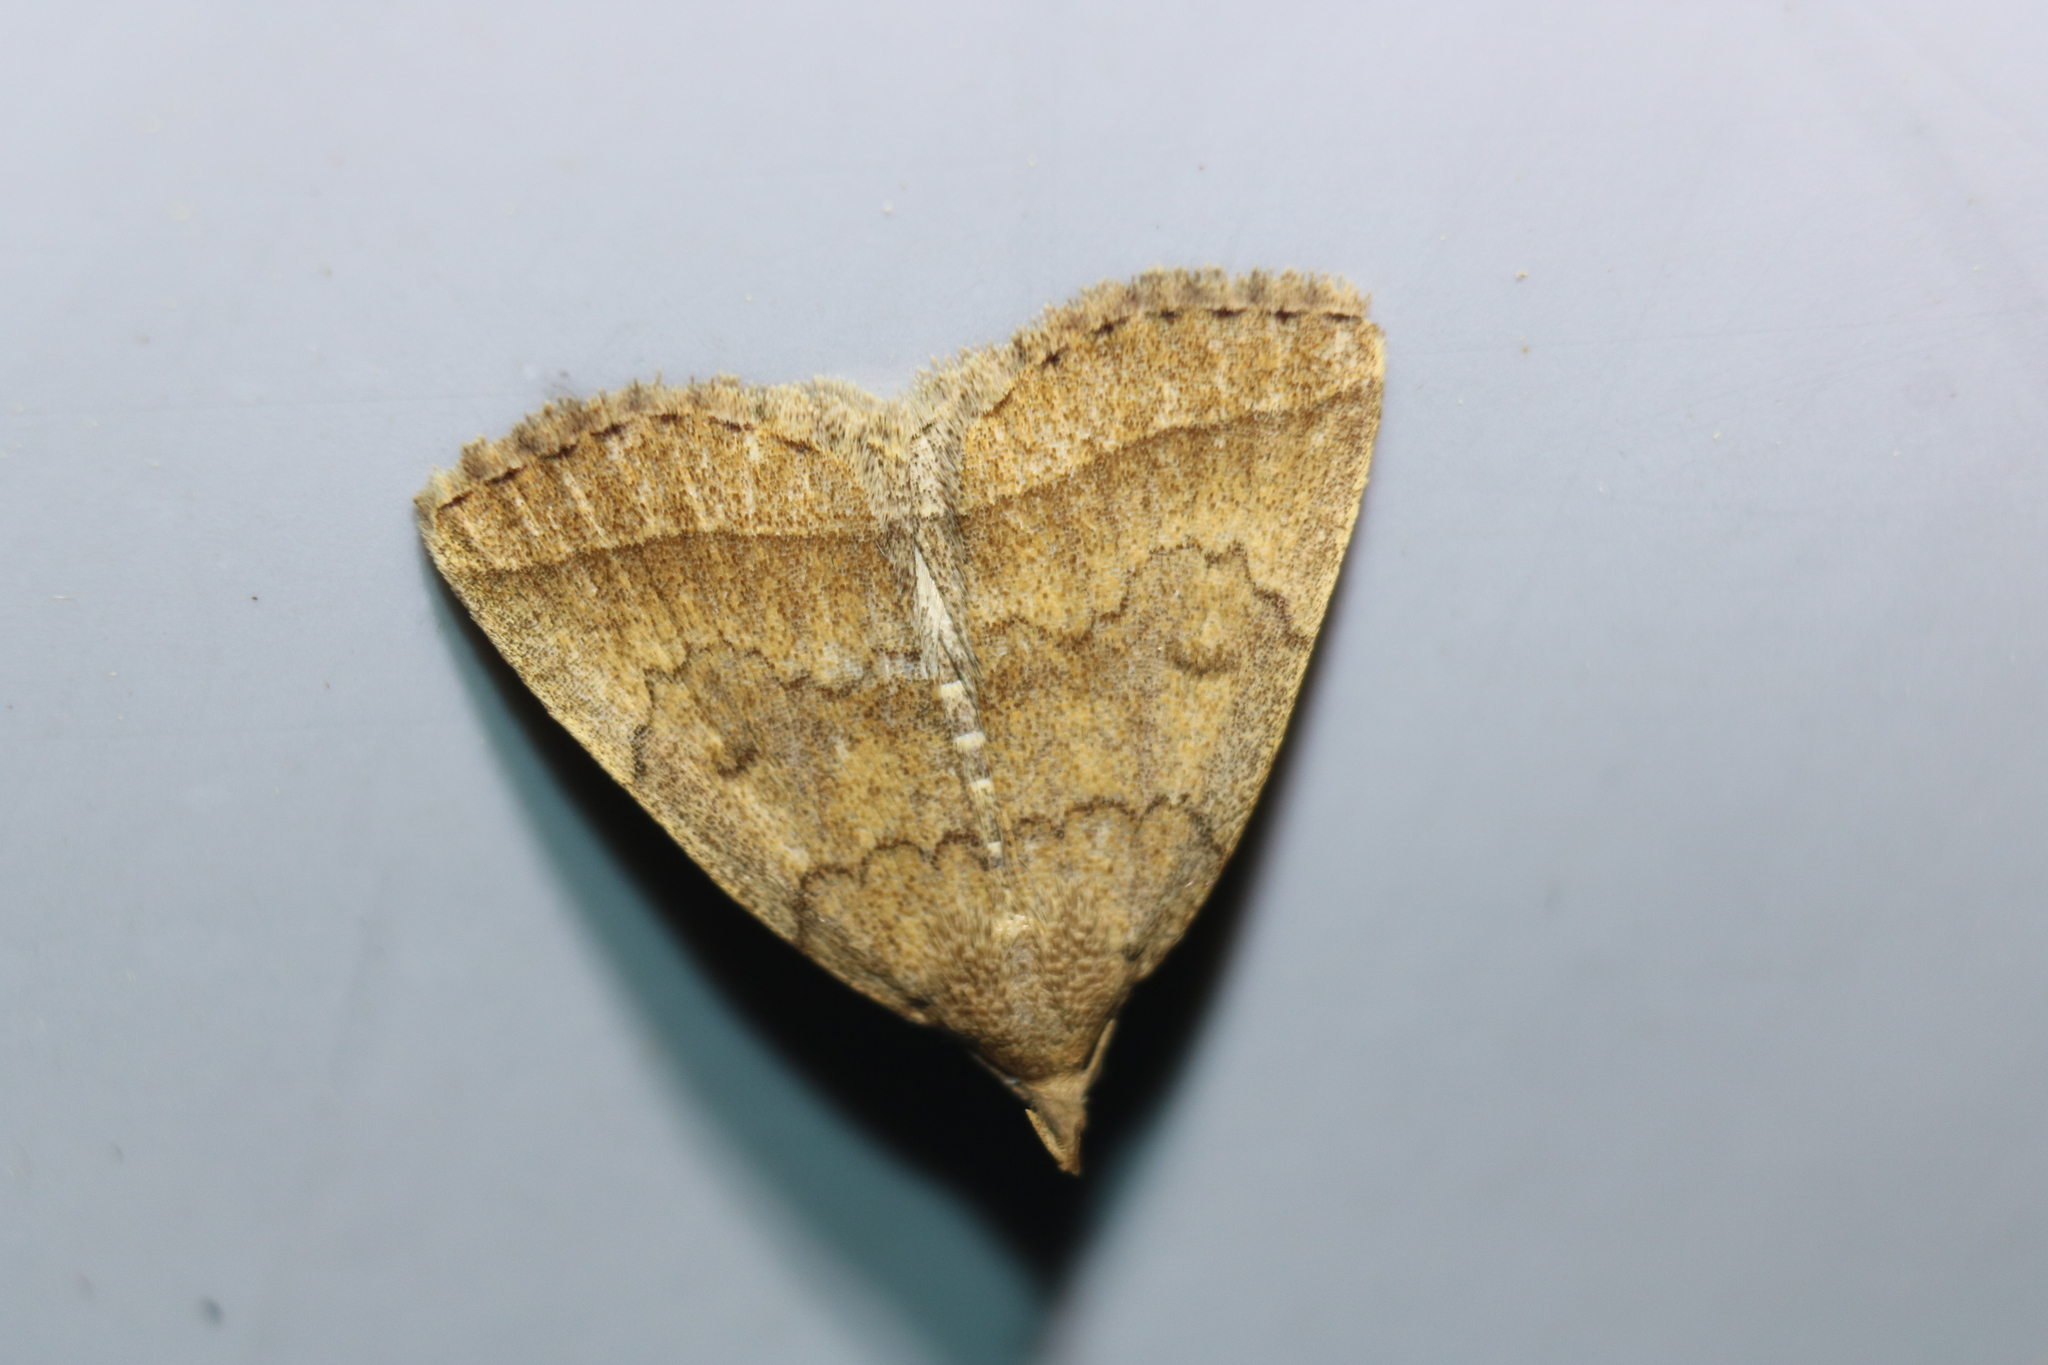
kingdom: Animalia
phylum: Arthropoda
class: Insecta
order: Lepidoptera
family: Erebidae
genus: Zanclognatha
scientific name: Zanclognatha jacchusalis
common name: Yellowish zanclognatha
